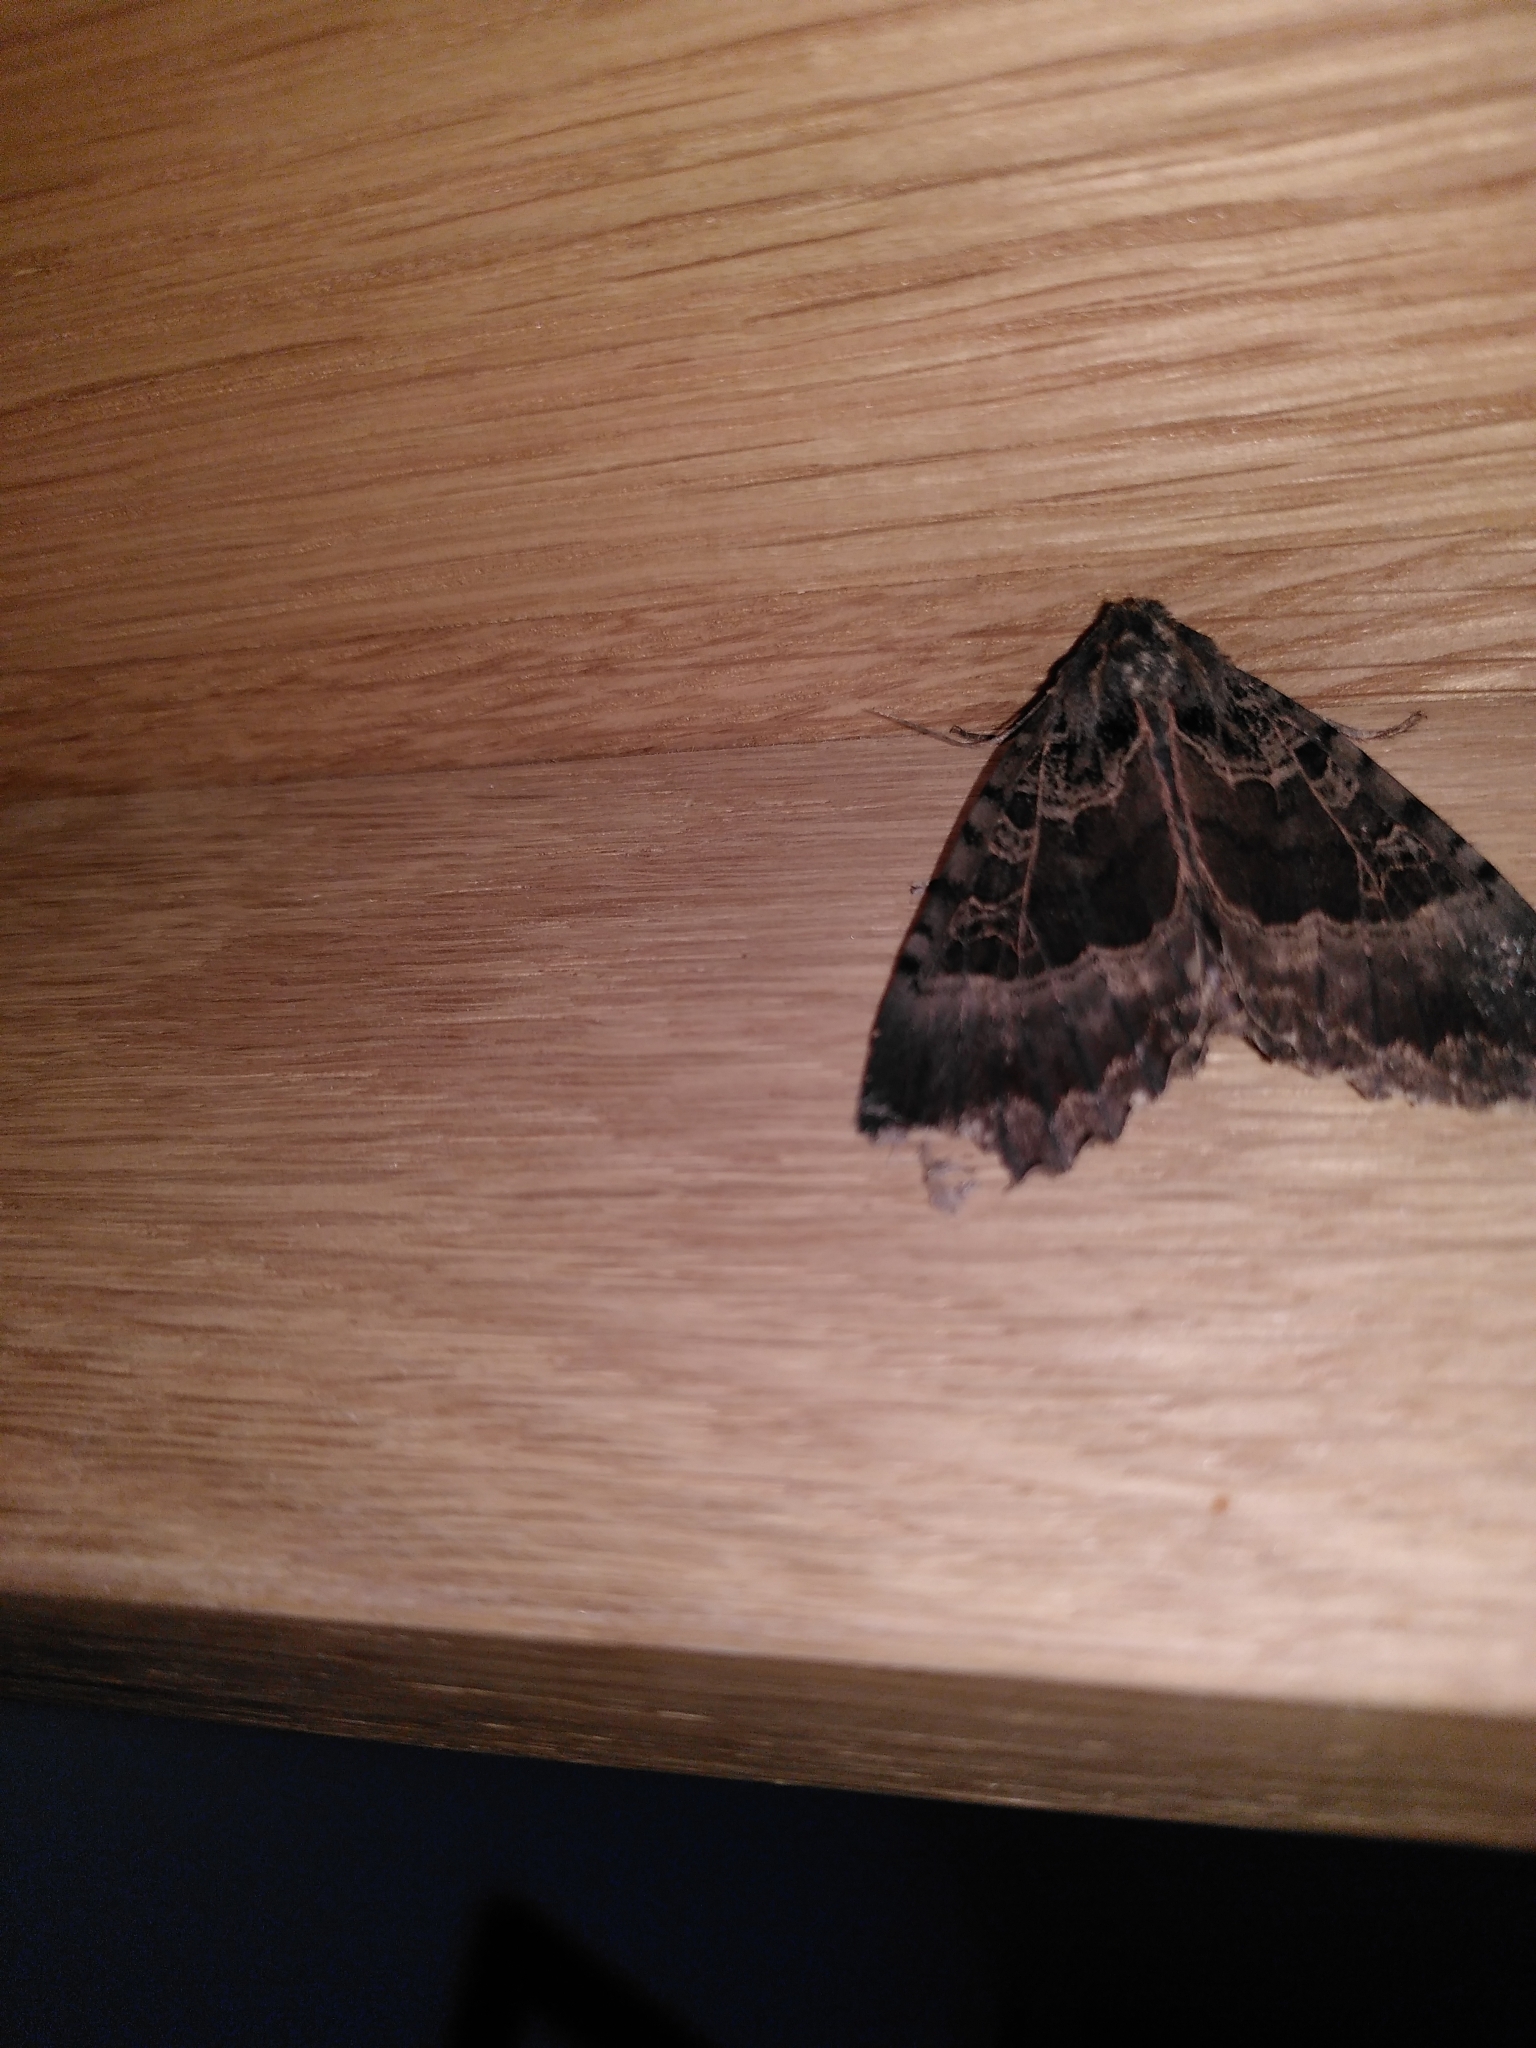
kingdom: Animalia
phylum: Arthropoda
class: Insecta
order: Lepidoptera
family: Noctuidae
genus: Mormo
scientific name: Mormo maura
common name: Old lady
